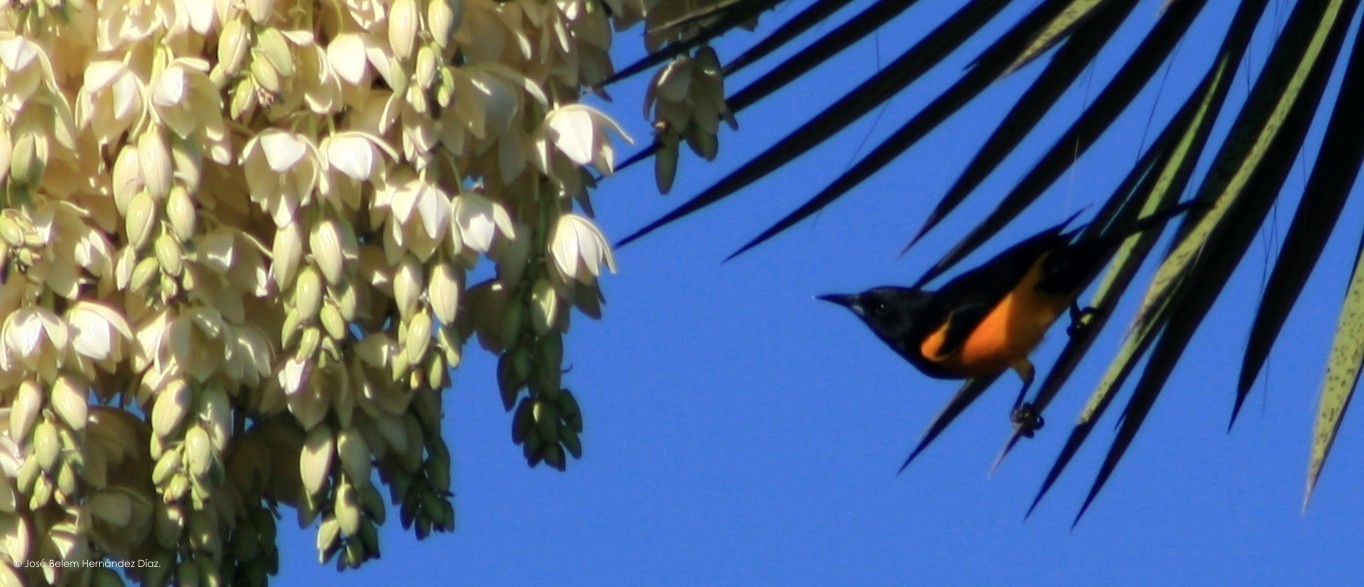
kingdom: Animalia
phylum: Chordata
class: Aves
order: Passeriformes
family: Icteridae
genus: Icterus
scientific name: Icterus wagleri
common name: Black-vented oriole
